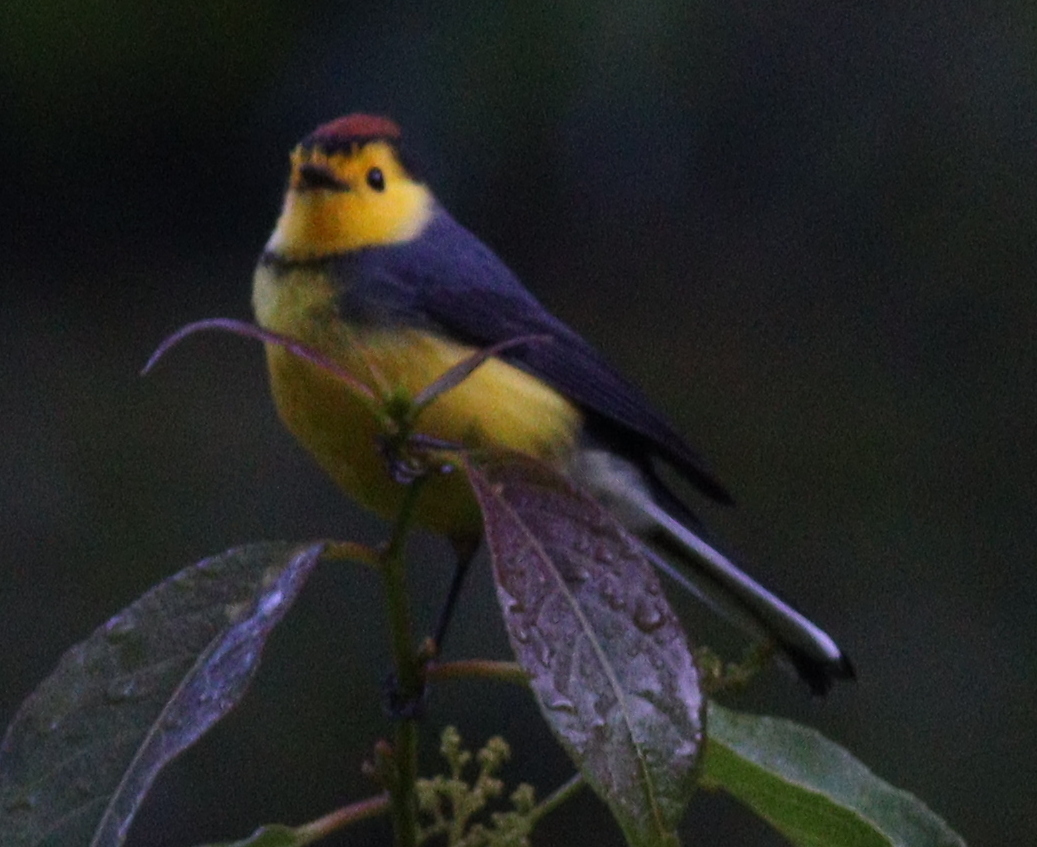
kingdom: Animalia
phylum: Chordata
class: Aves
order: Passeriformes
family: Parulidae
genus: Myioborus
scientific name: Myioborus torquatus
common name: Collared whitestart
